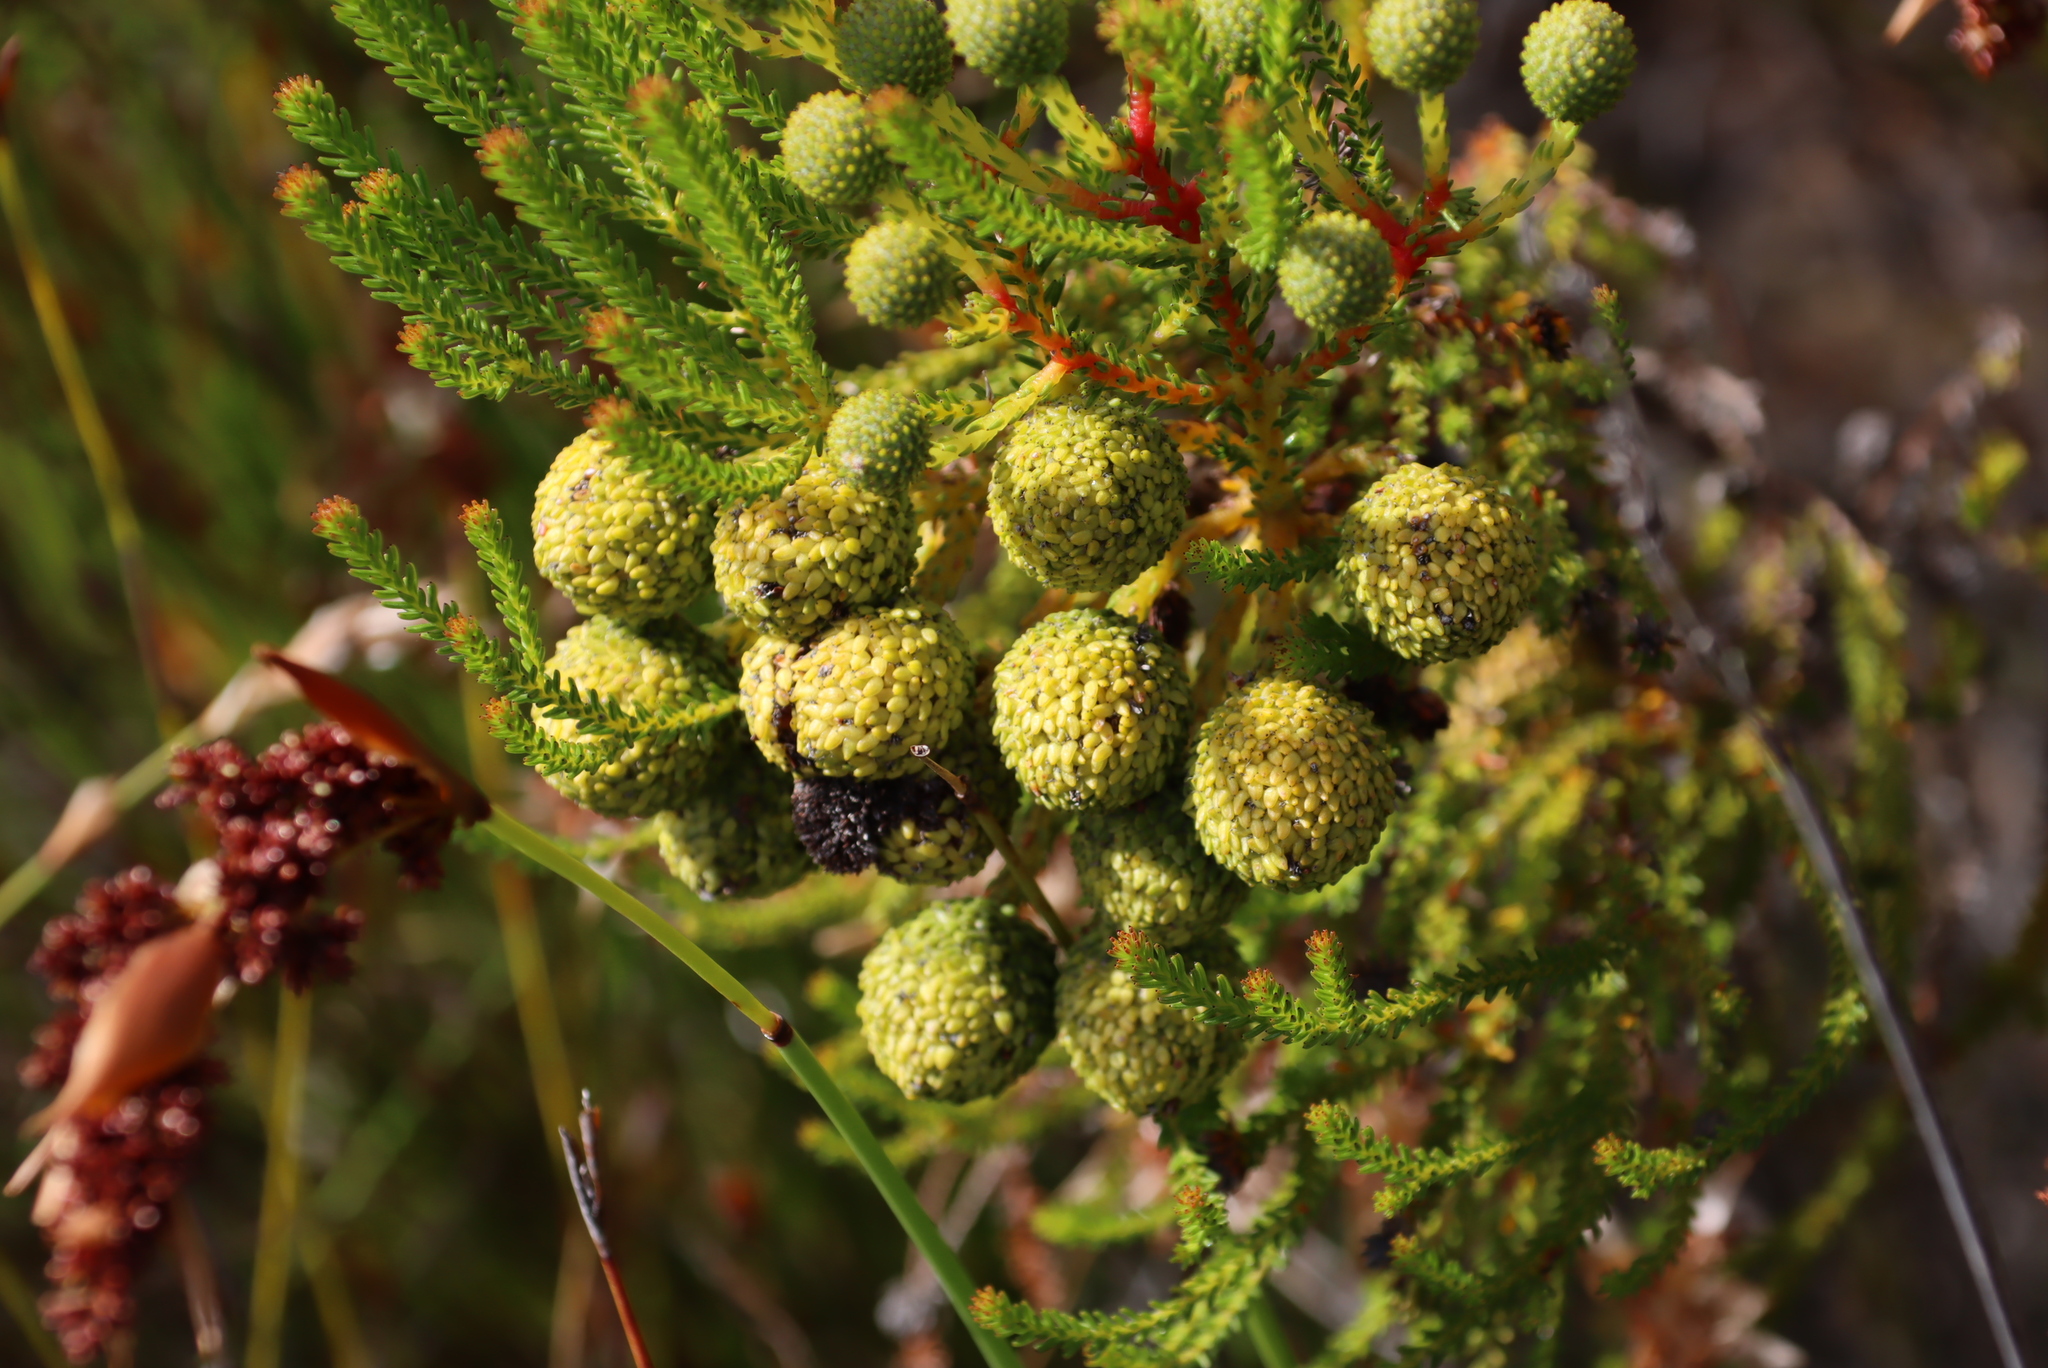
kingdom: Plantae
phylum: Tracheophyta
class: Magnoliopsida
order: Bruniales
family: Bruniaceae
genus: Berzelia
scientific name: Berzelia abrotanoides
